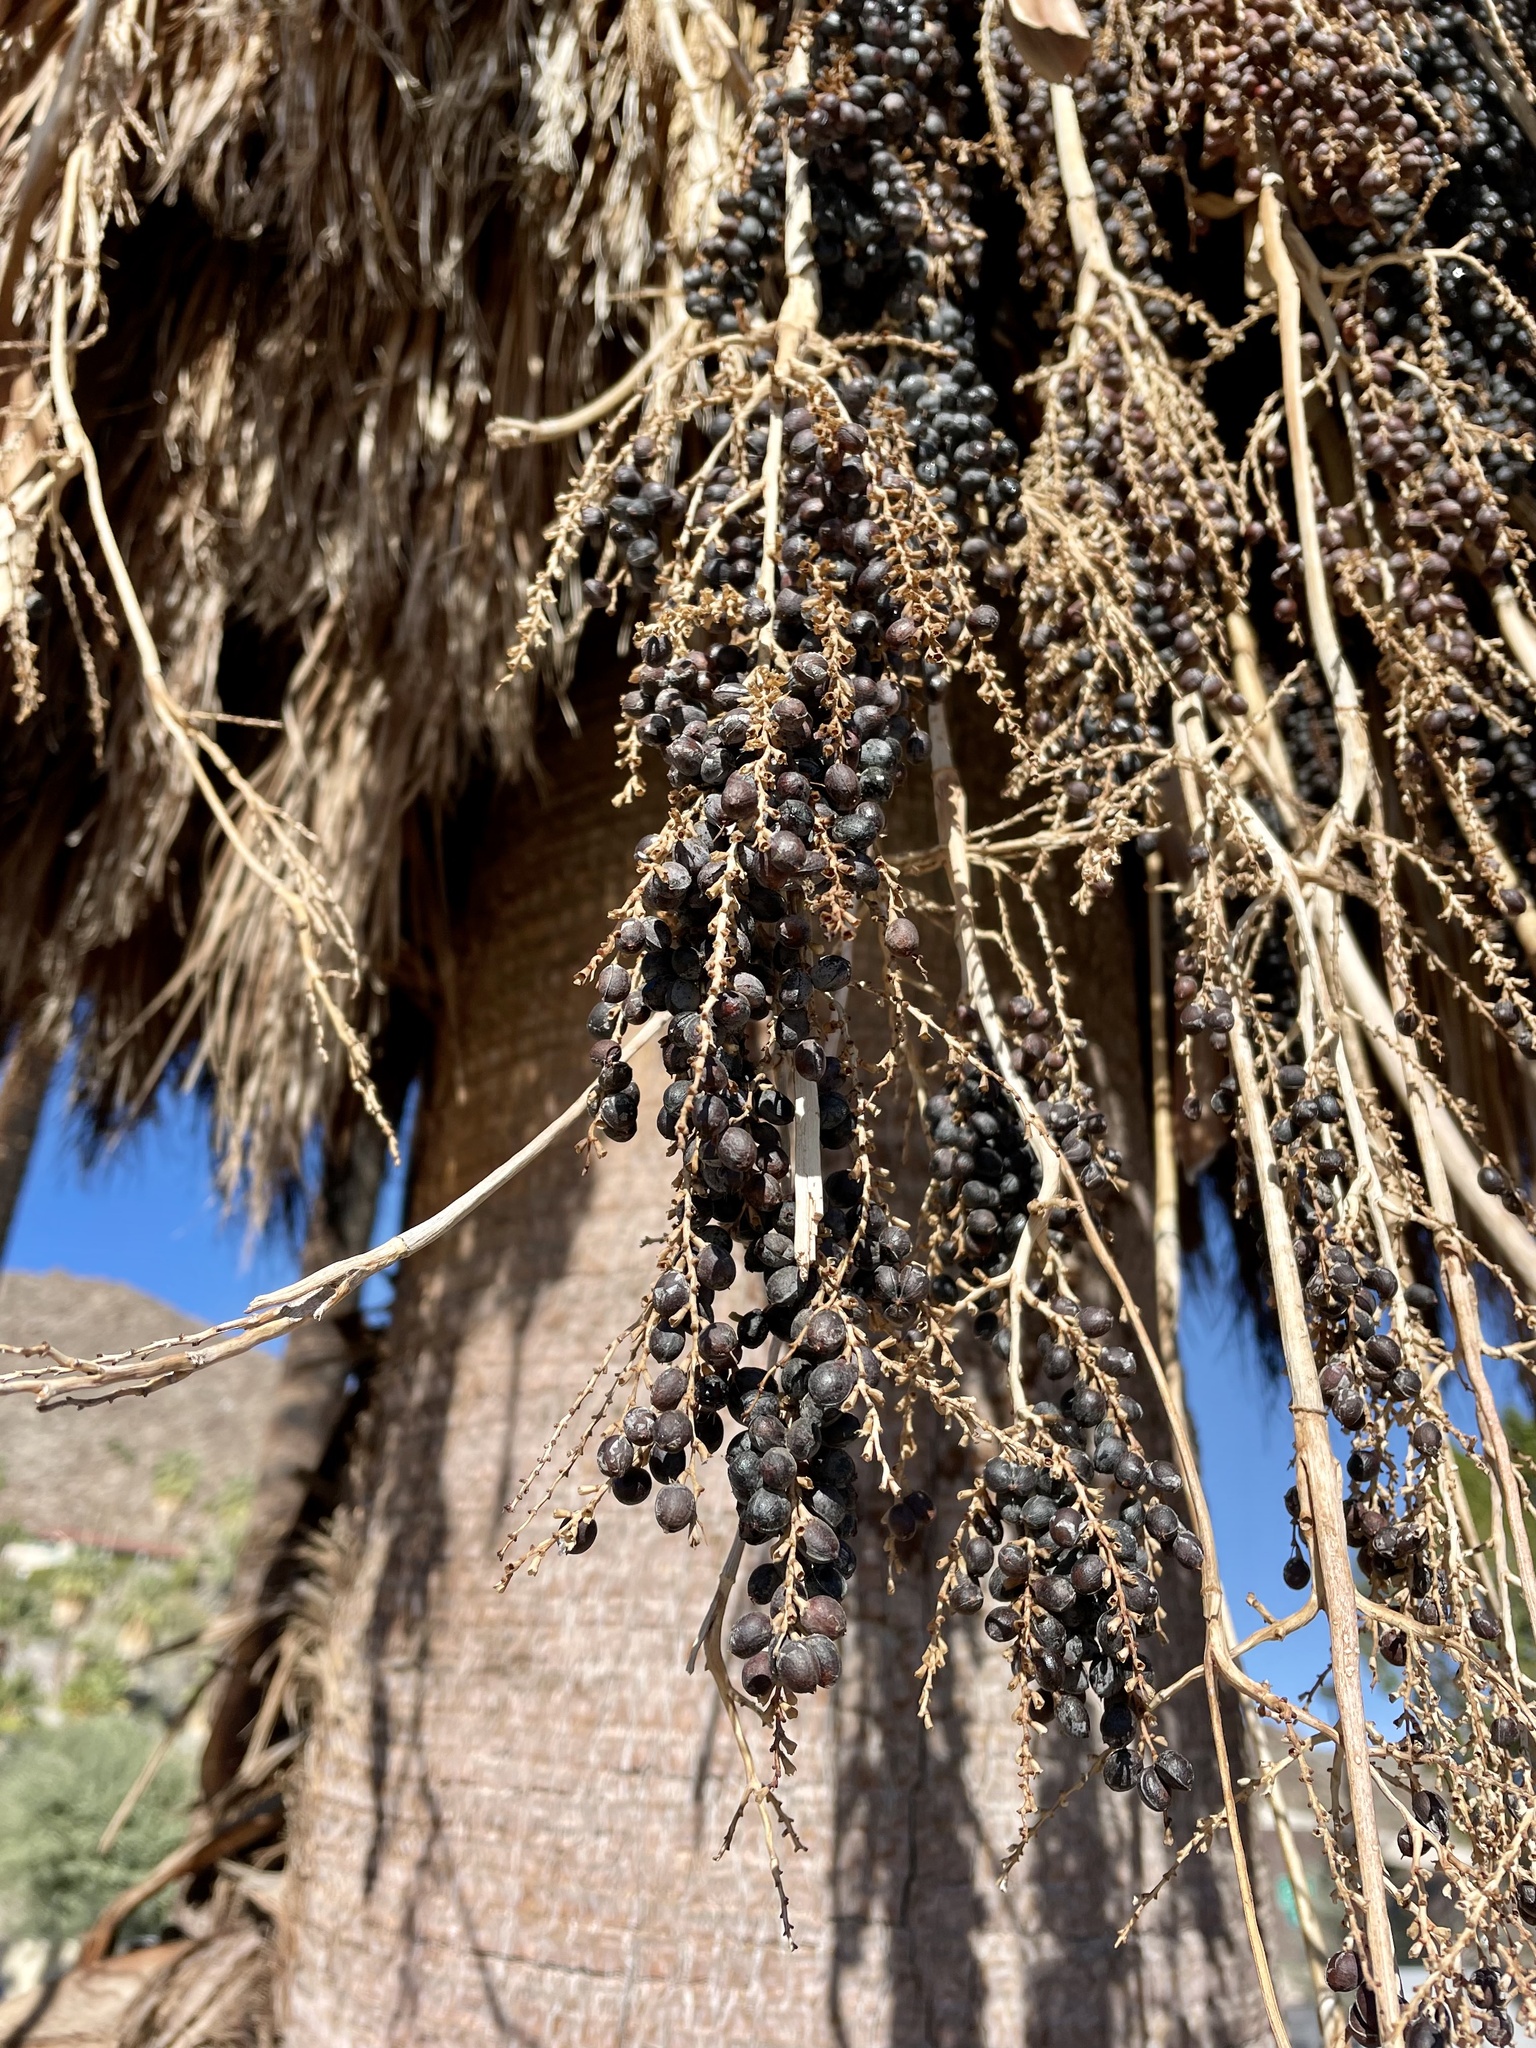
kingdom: Plantae
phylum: Tracheophyta
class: Liliopsida
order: Arecales
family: Arecaceae
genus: Washingtonia
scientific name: Washingtonia filifera
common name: California fan palm
